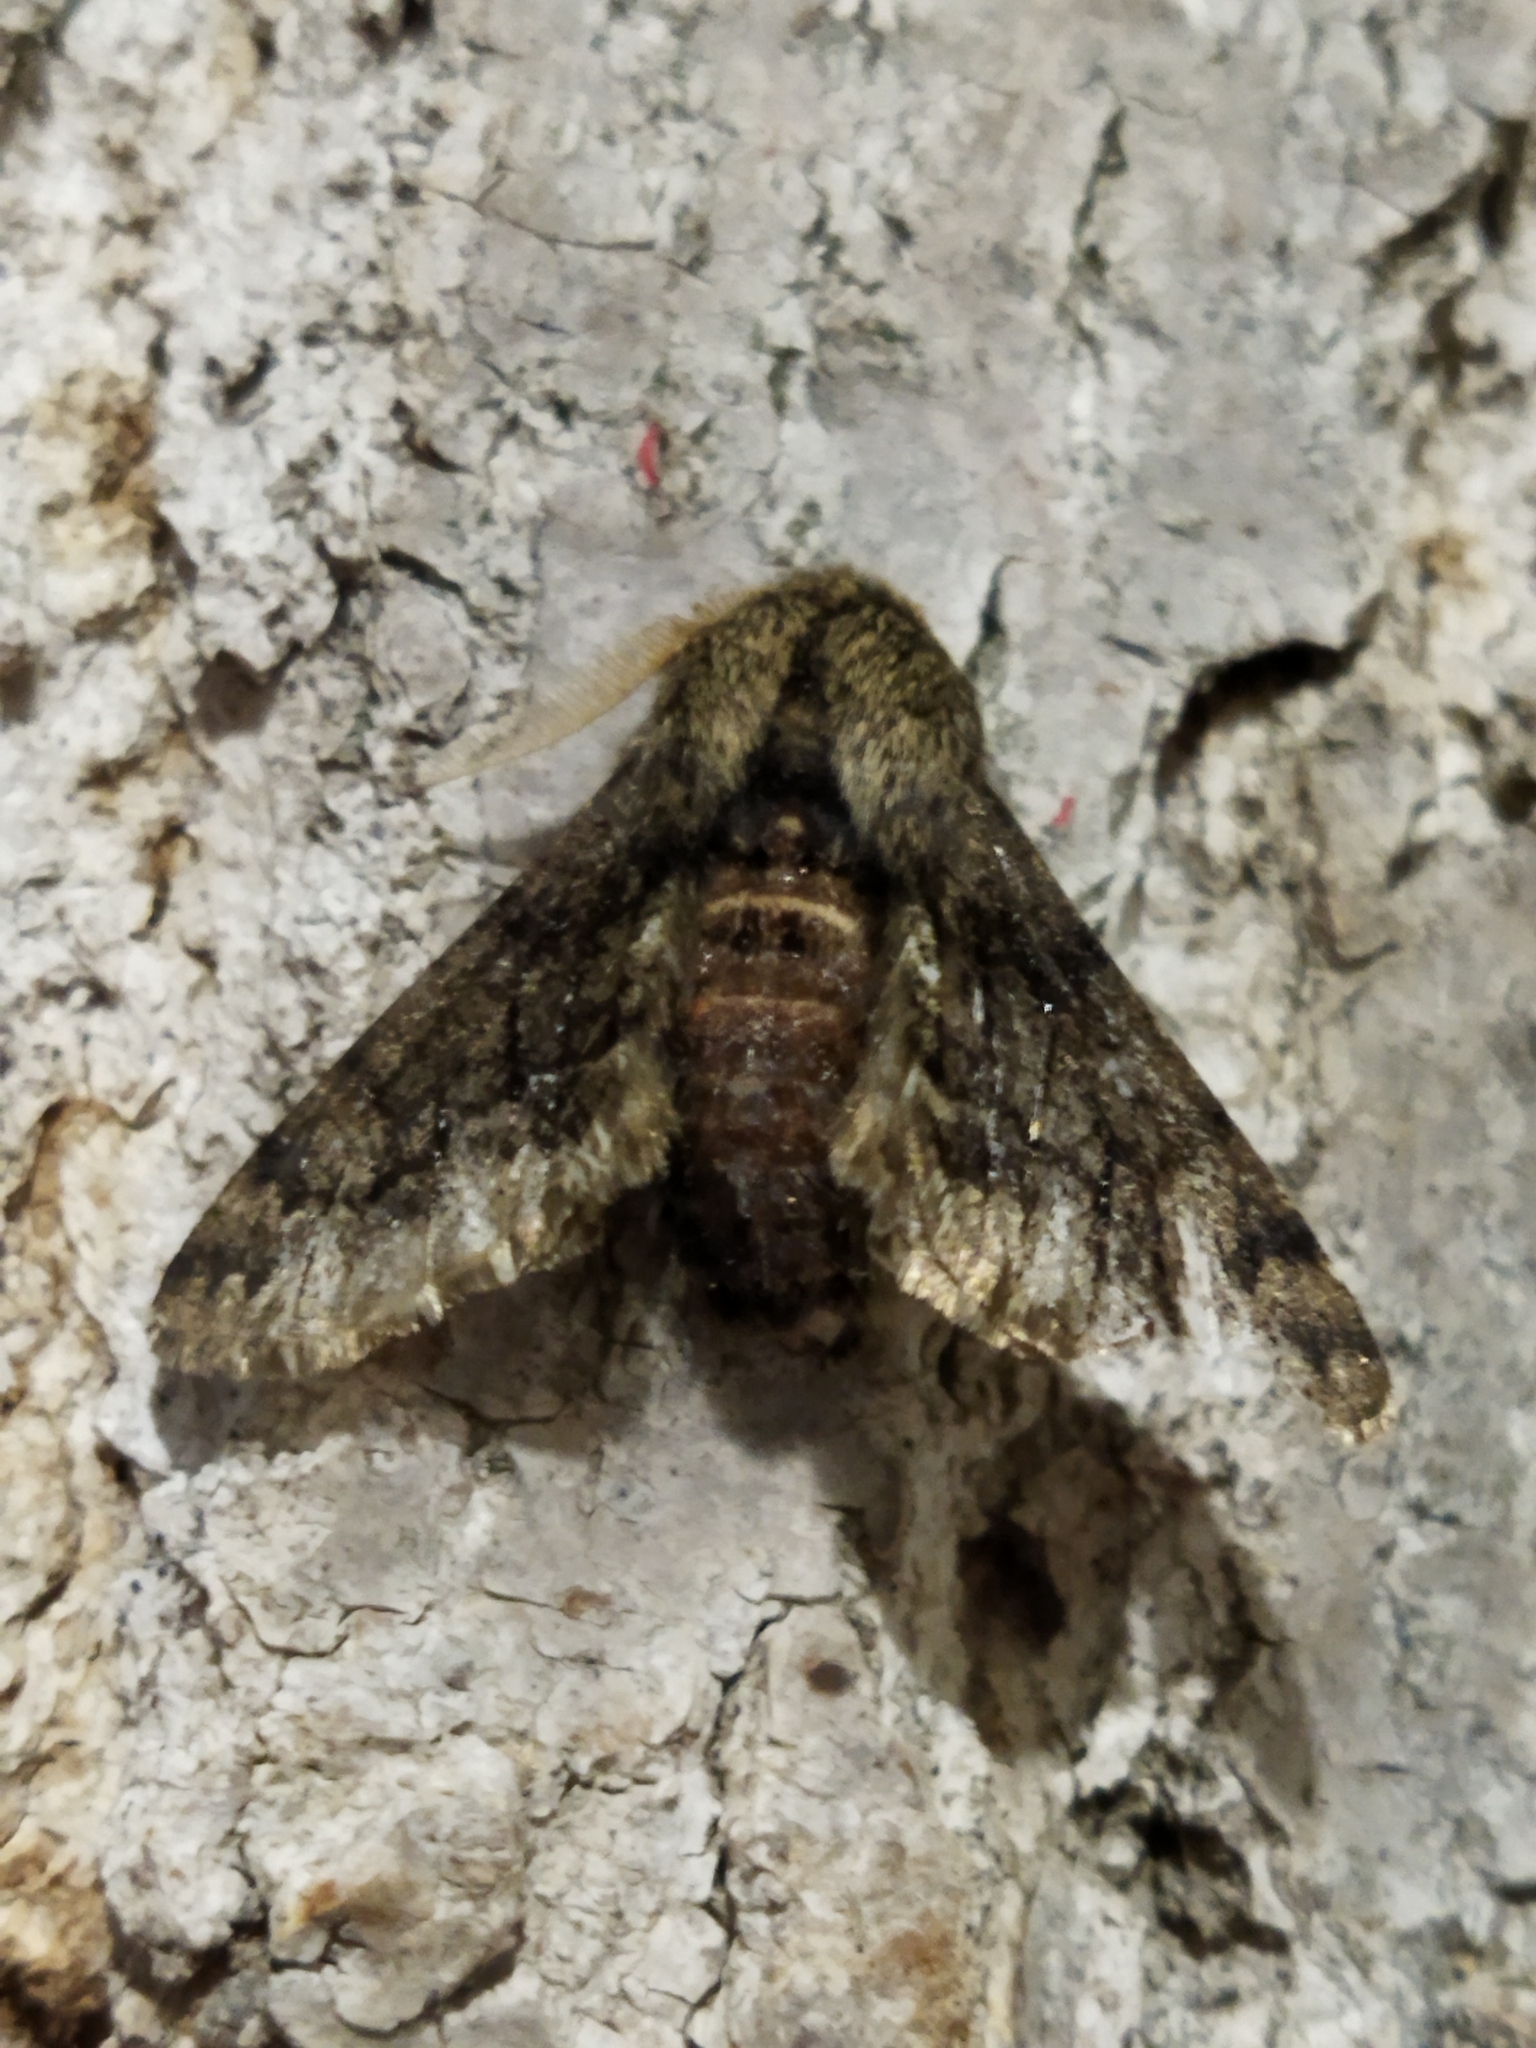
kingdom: Animalia
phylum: Arthropoda
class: Insecta
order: Lepidoptera
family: Geometridae
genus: Apocheima
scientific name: Apocheima hispidaria
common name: Small brindled beauty
